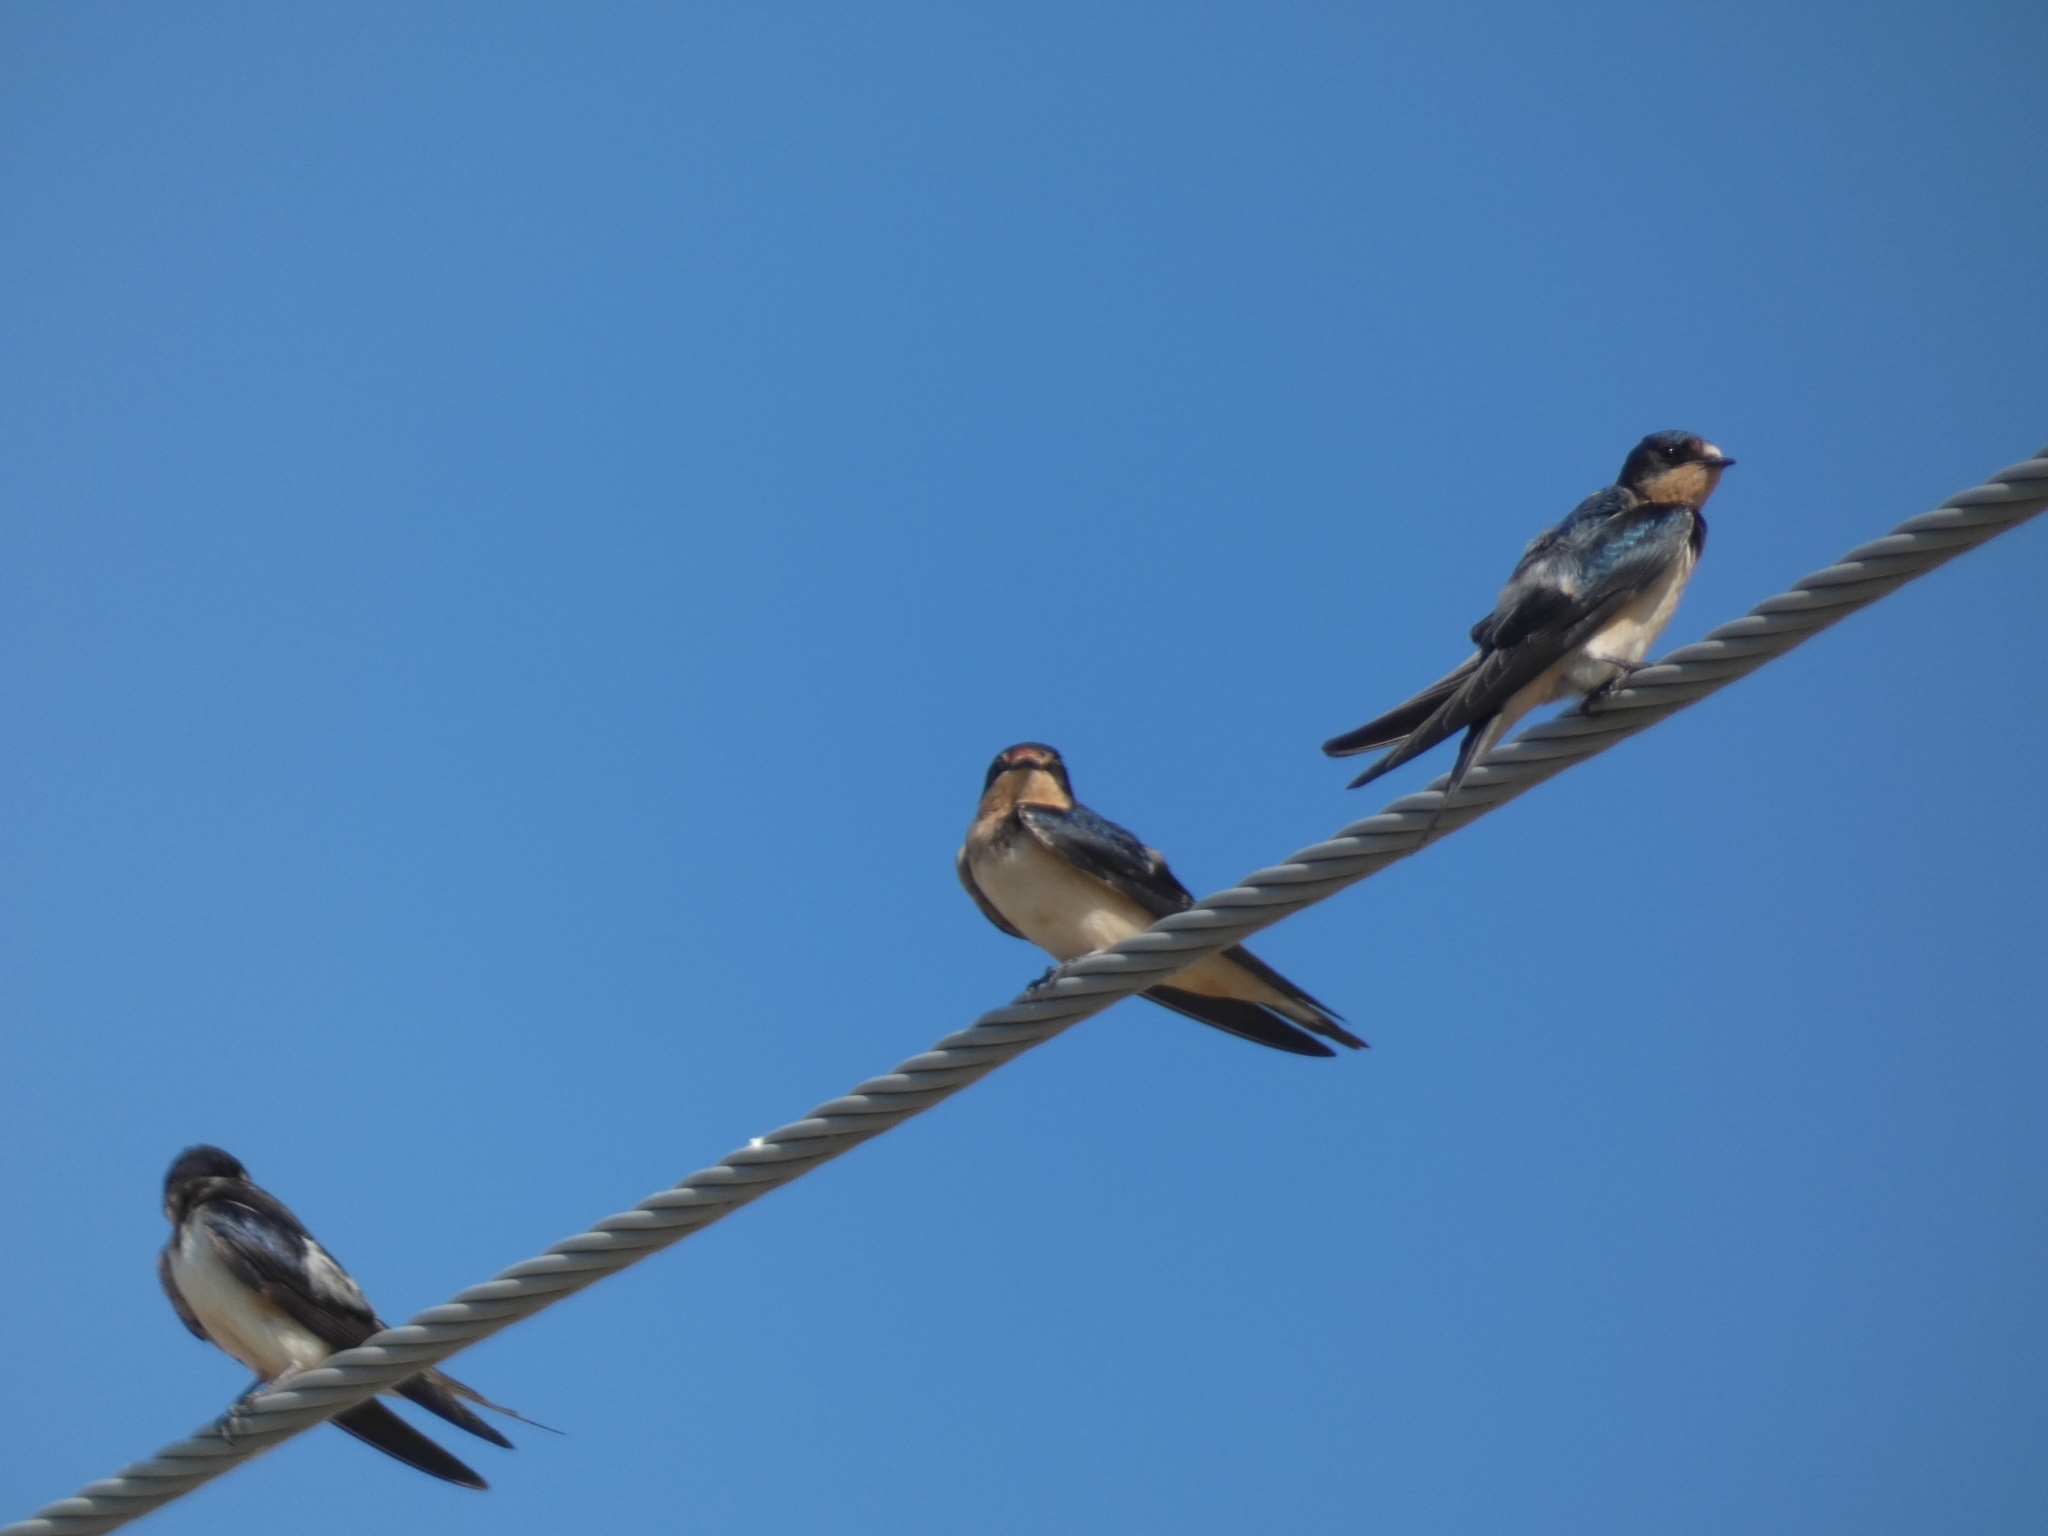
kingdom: Animalia
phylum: Chordata
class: Aves
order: Passeriformes
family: Hirundinidae
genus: Hirundo
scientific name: Hirundo rustica
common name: Barn swallow
